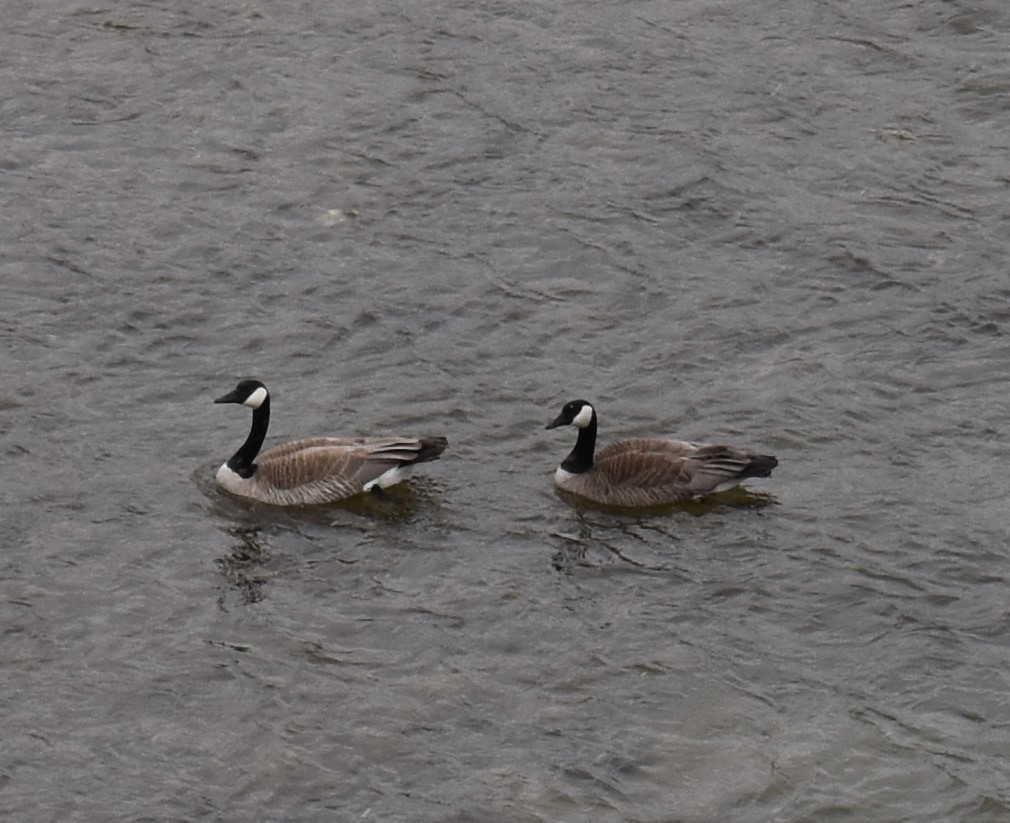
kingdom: Animalia
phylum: Chordata
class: Aves
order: Anseriformes
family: Anatidae
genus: Branta
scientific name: Branta canadensis
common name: Canada goose
